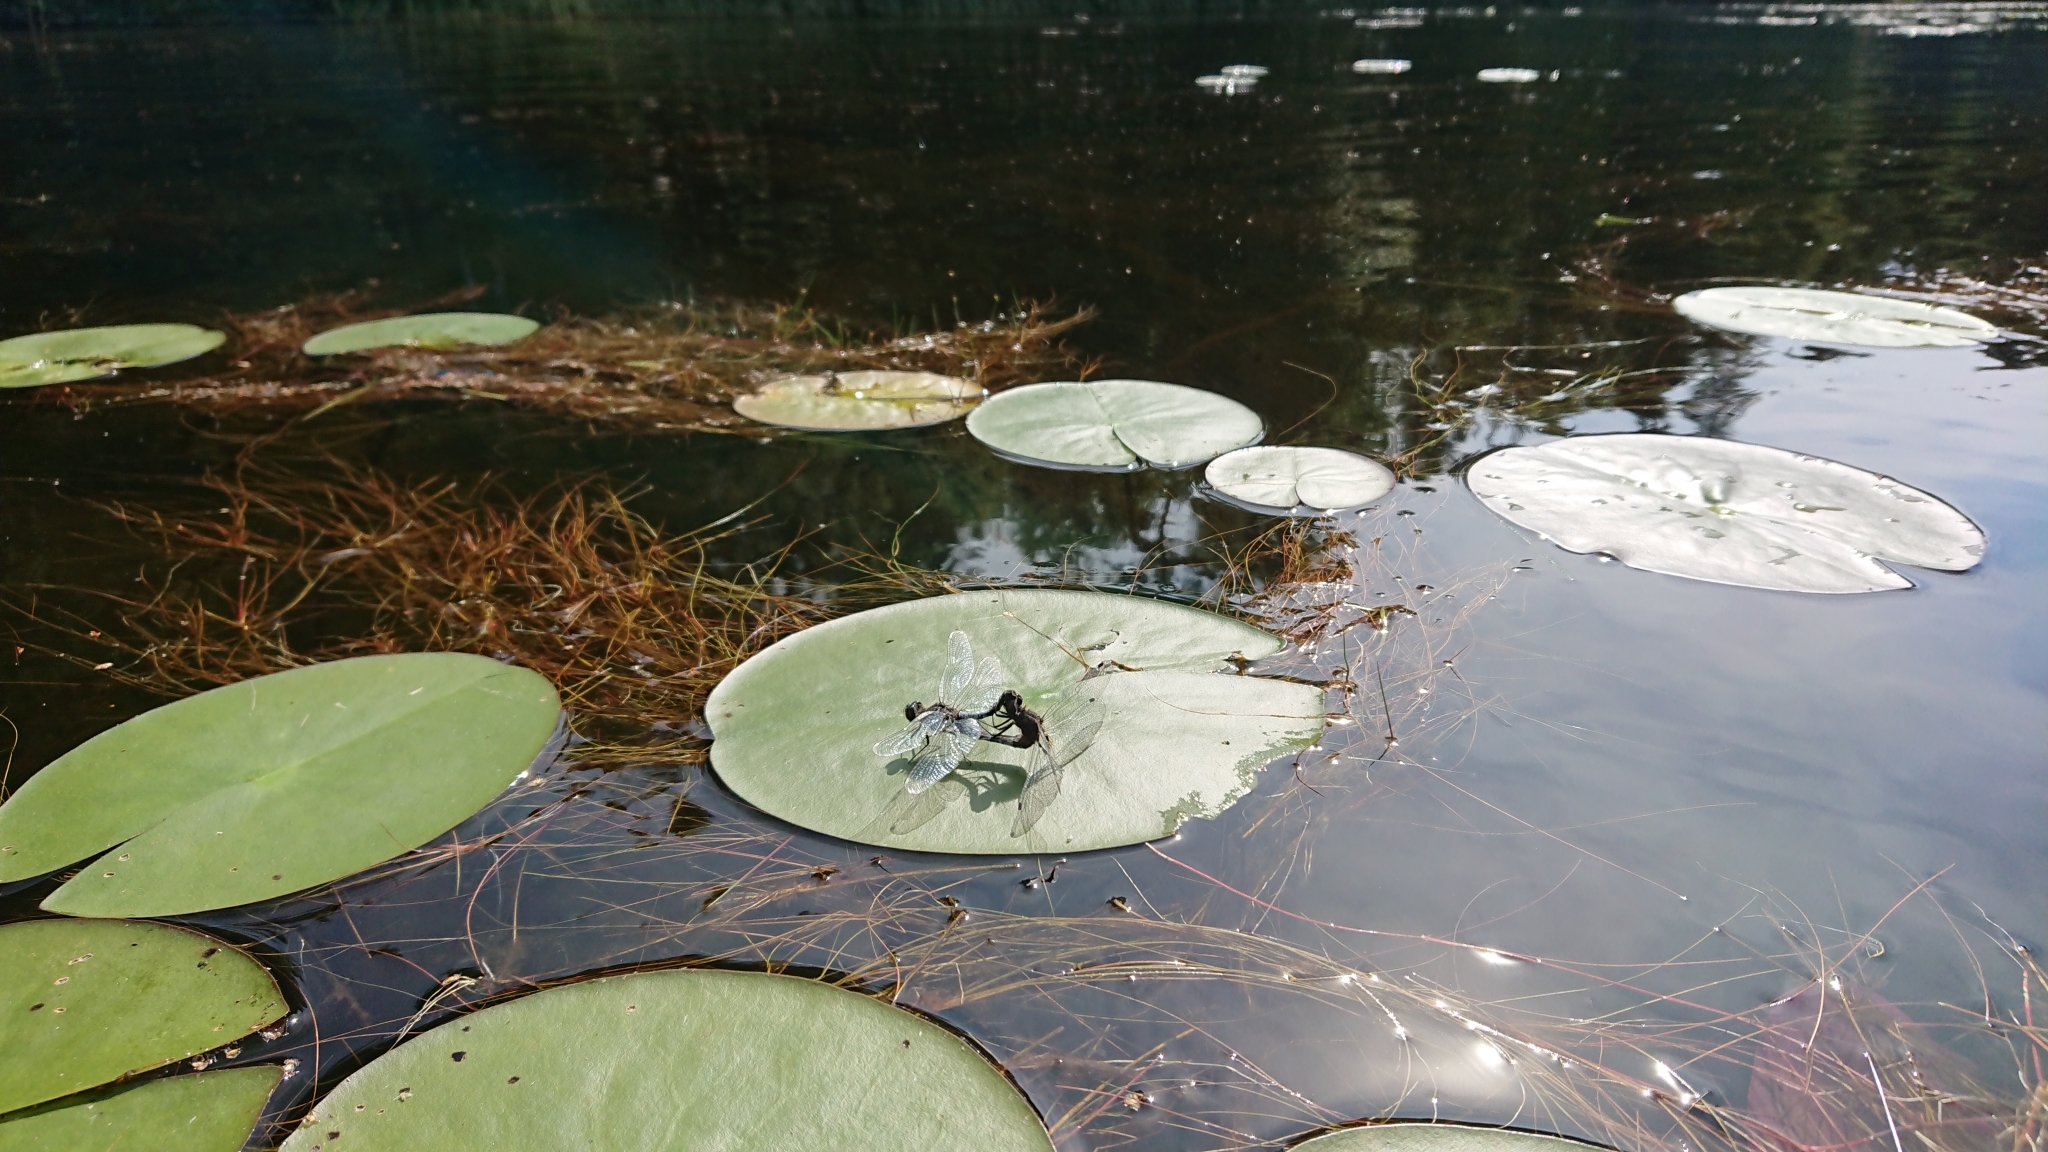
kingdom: Animalia
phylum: Arthropoda
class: Insecta
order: Odonata
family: Libellulidae
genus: Leucorrhinia
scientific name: Leucorrhinia caudalis
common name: Lilypad whiteface
